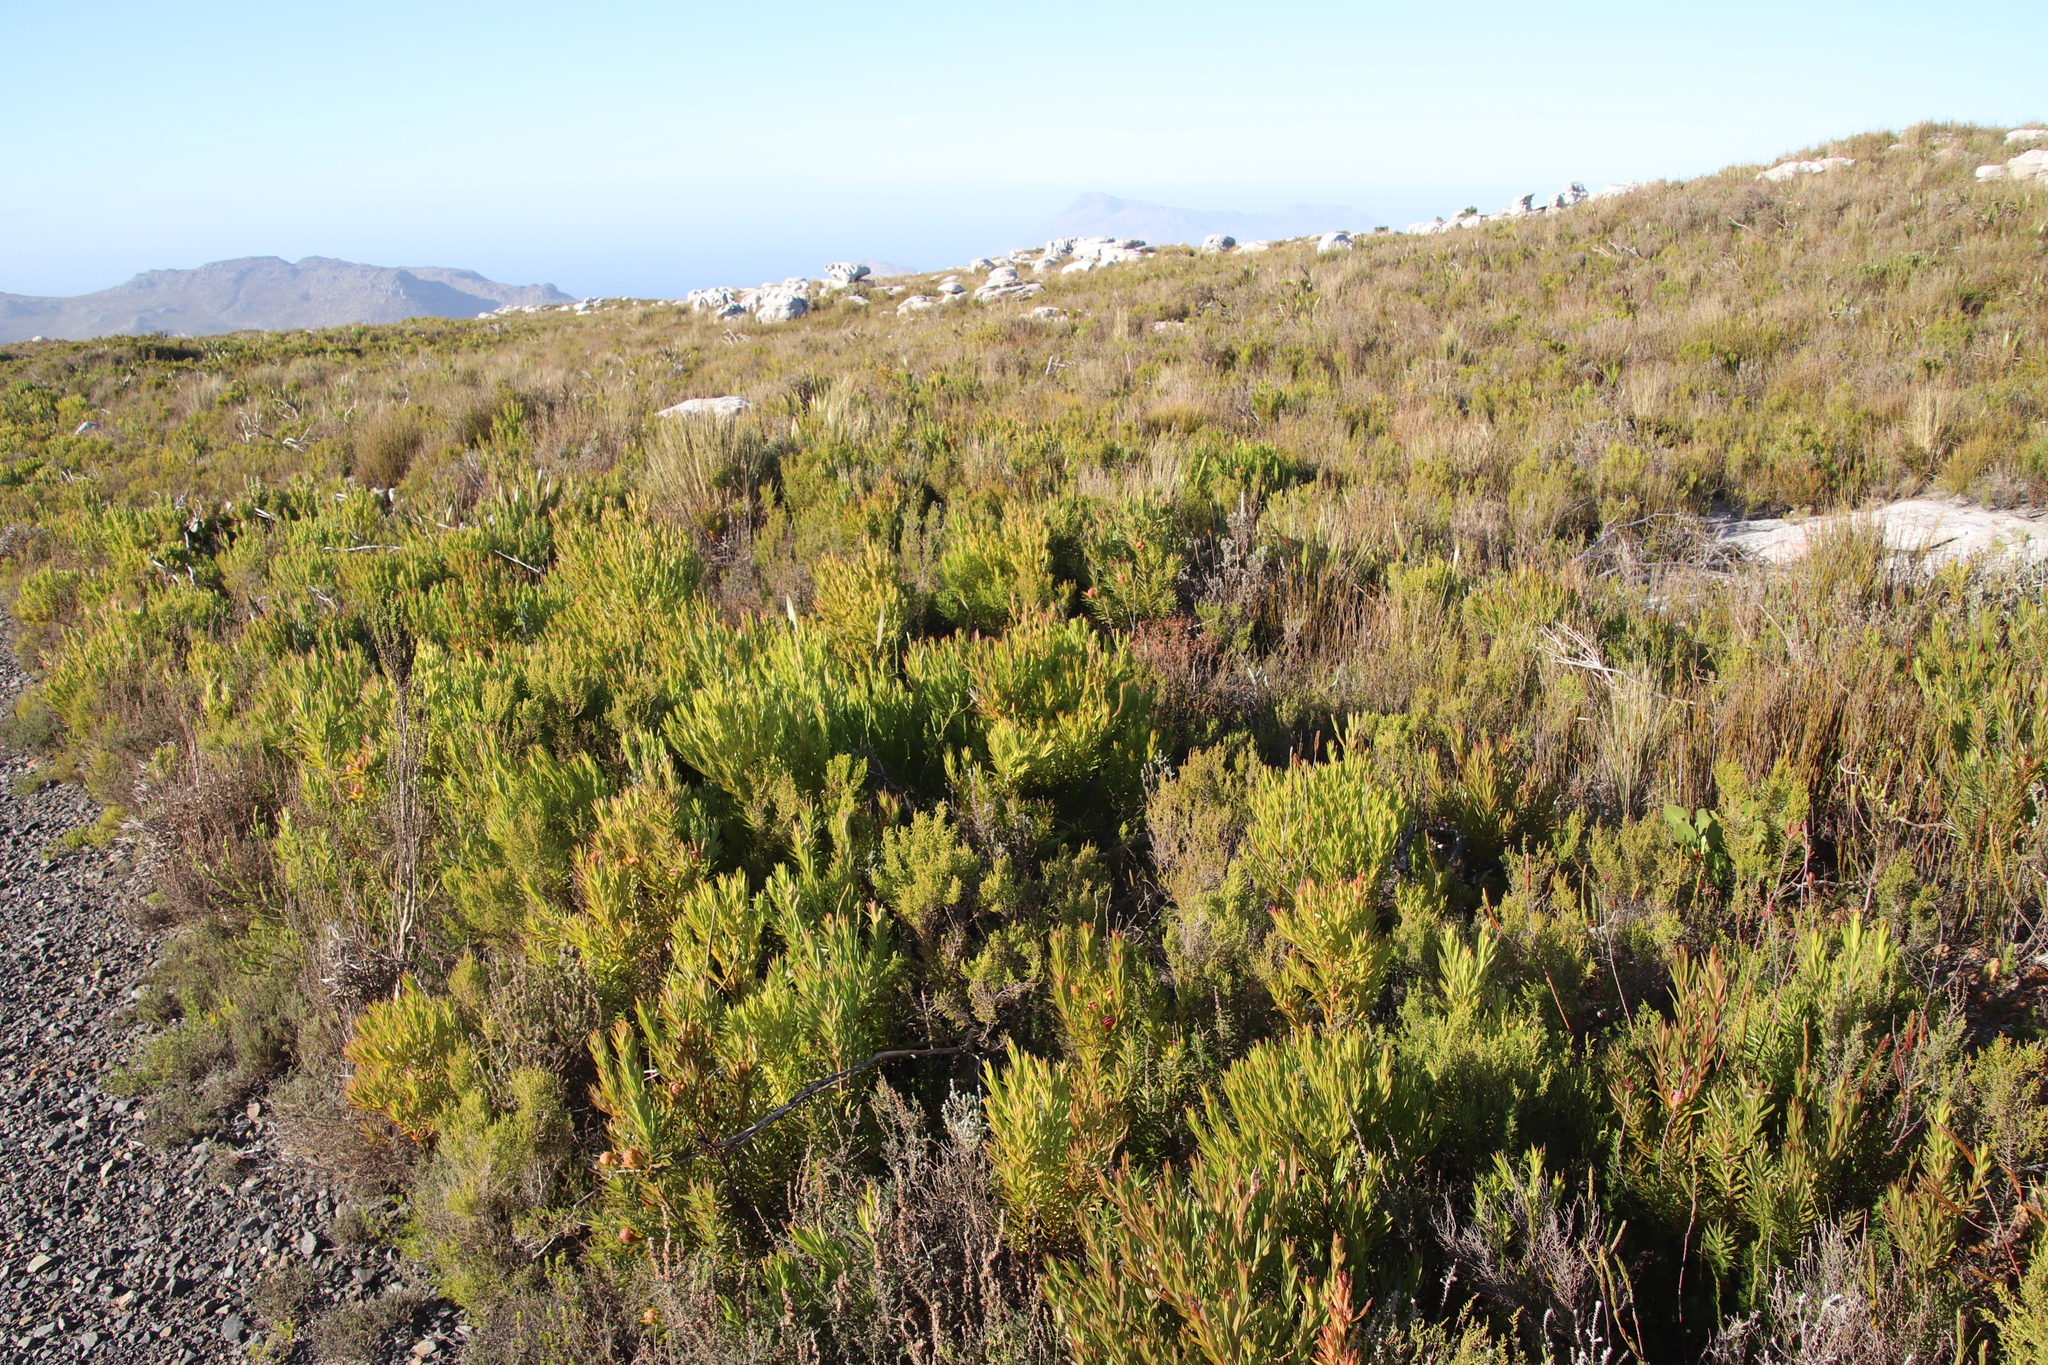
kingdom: Plantae
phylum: Tracheophyta
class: Magnoliopsida
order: Proteales
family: Proteaceae
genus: Leucadendron
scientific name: Leucadendron xanthoconus
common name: Sickle-leaf conebush
